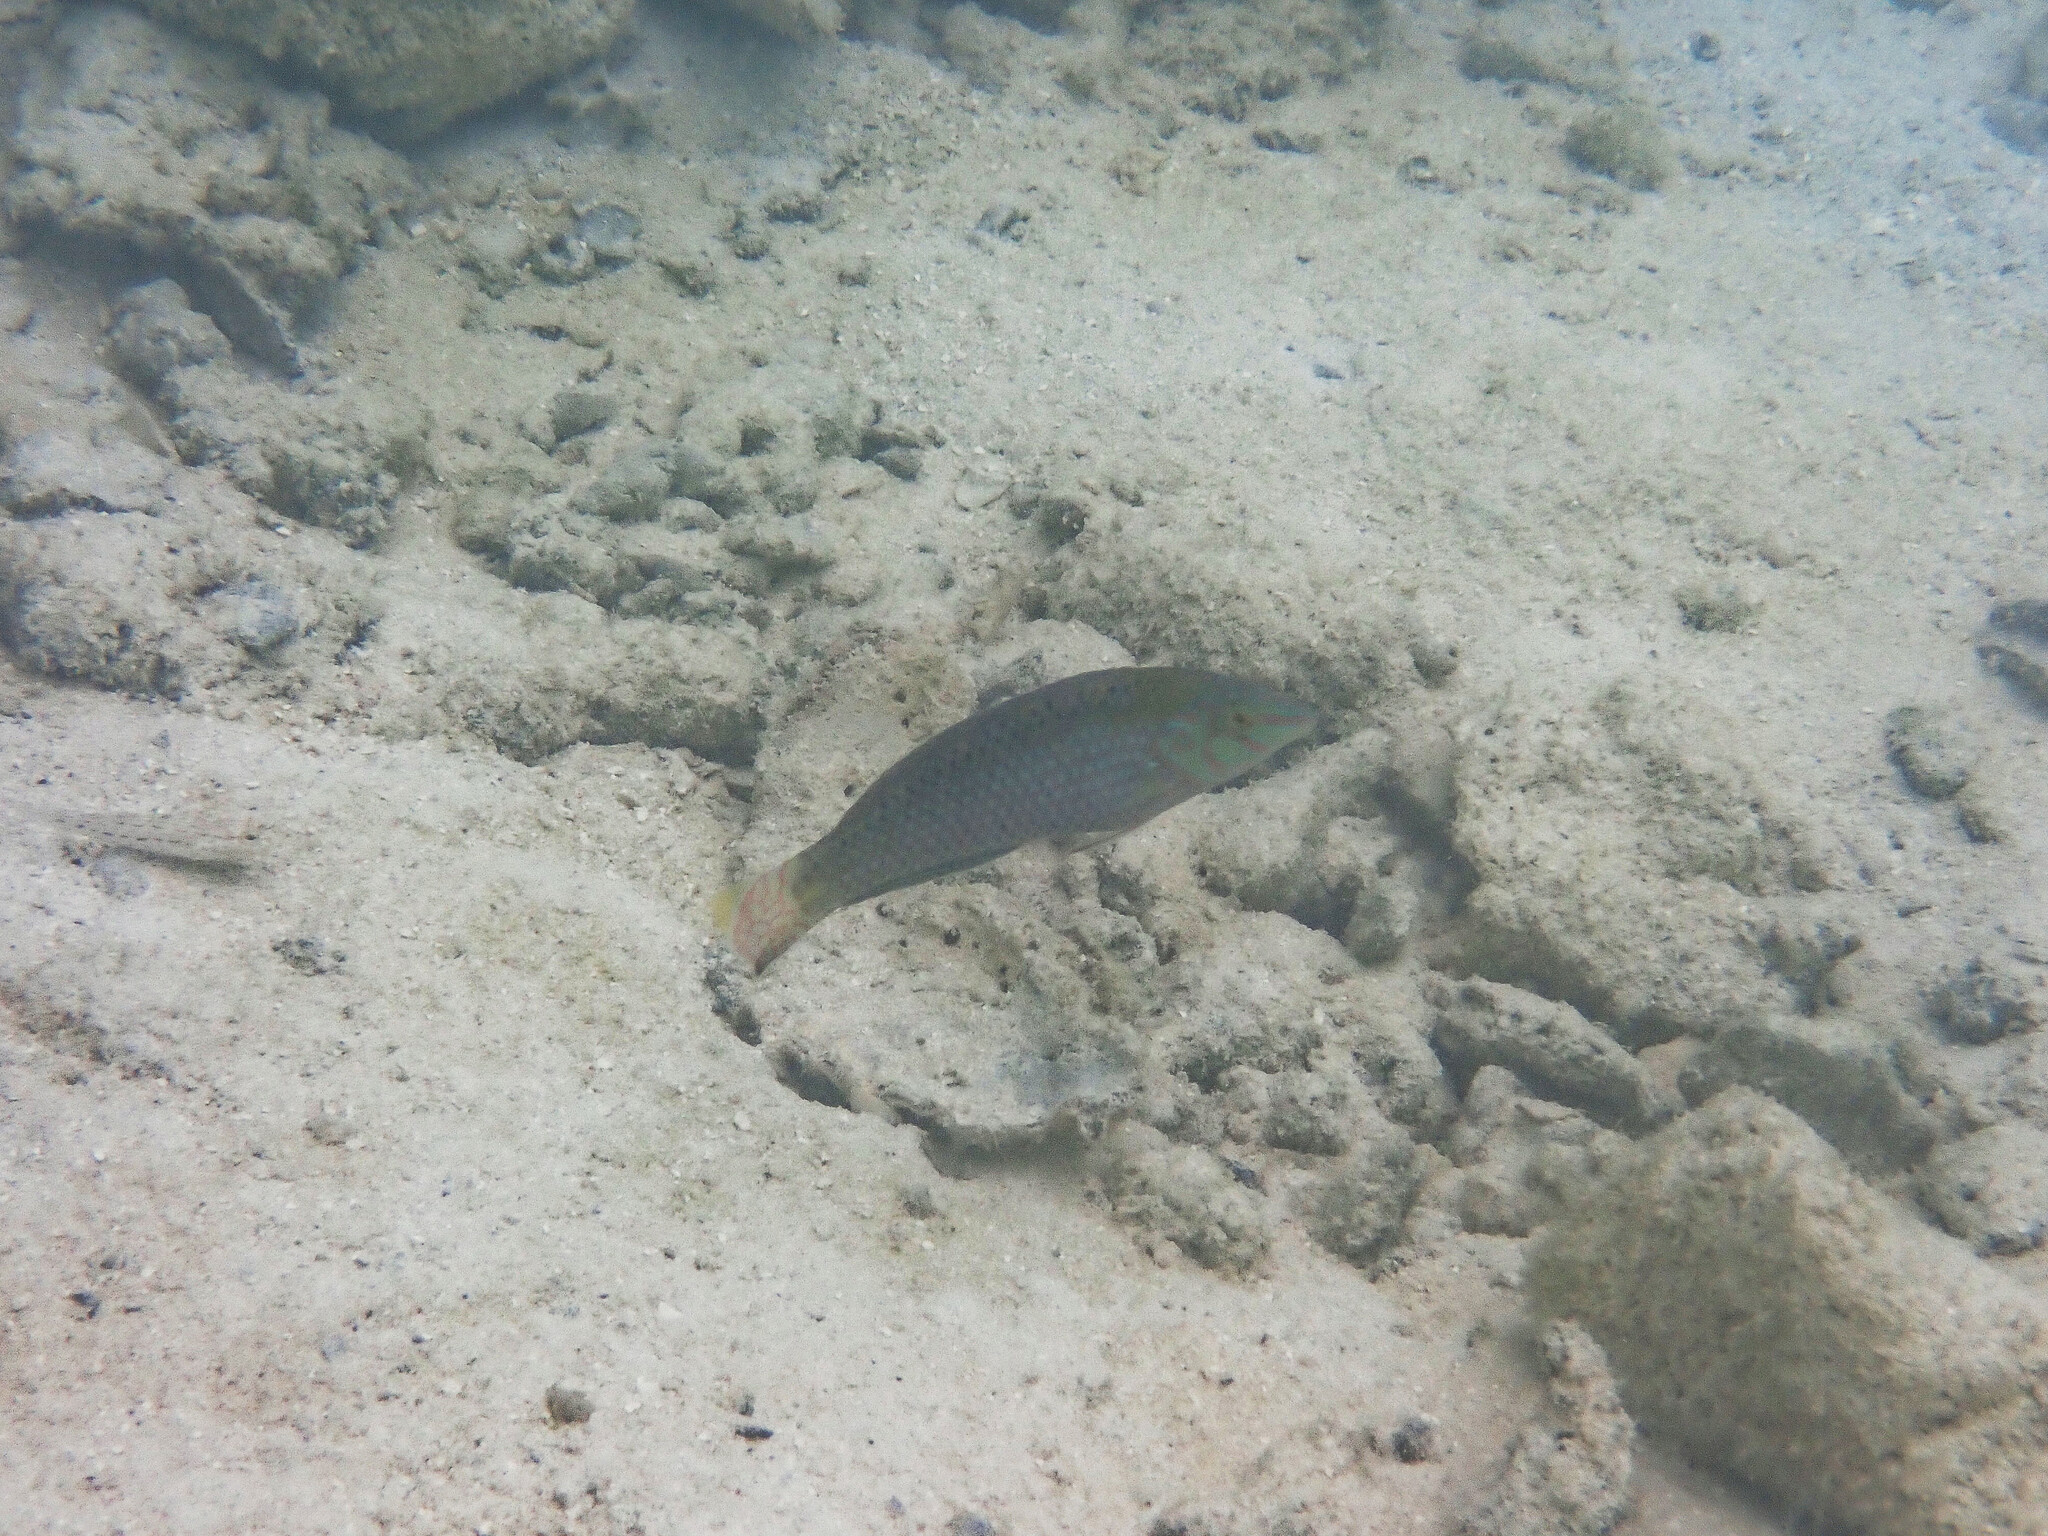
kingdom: Animalia
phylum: Chordata
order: Perciformes
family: Labridae
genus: Halichoeres
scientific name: Halichoeres argus
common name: Argus wrasse
